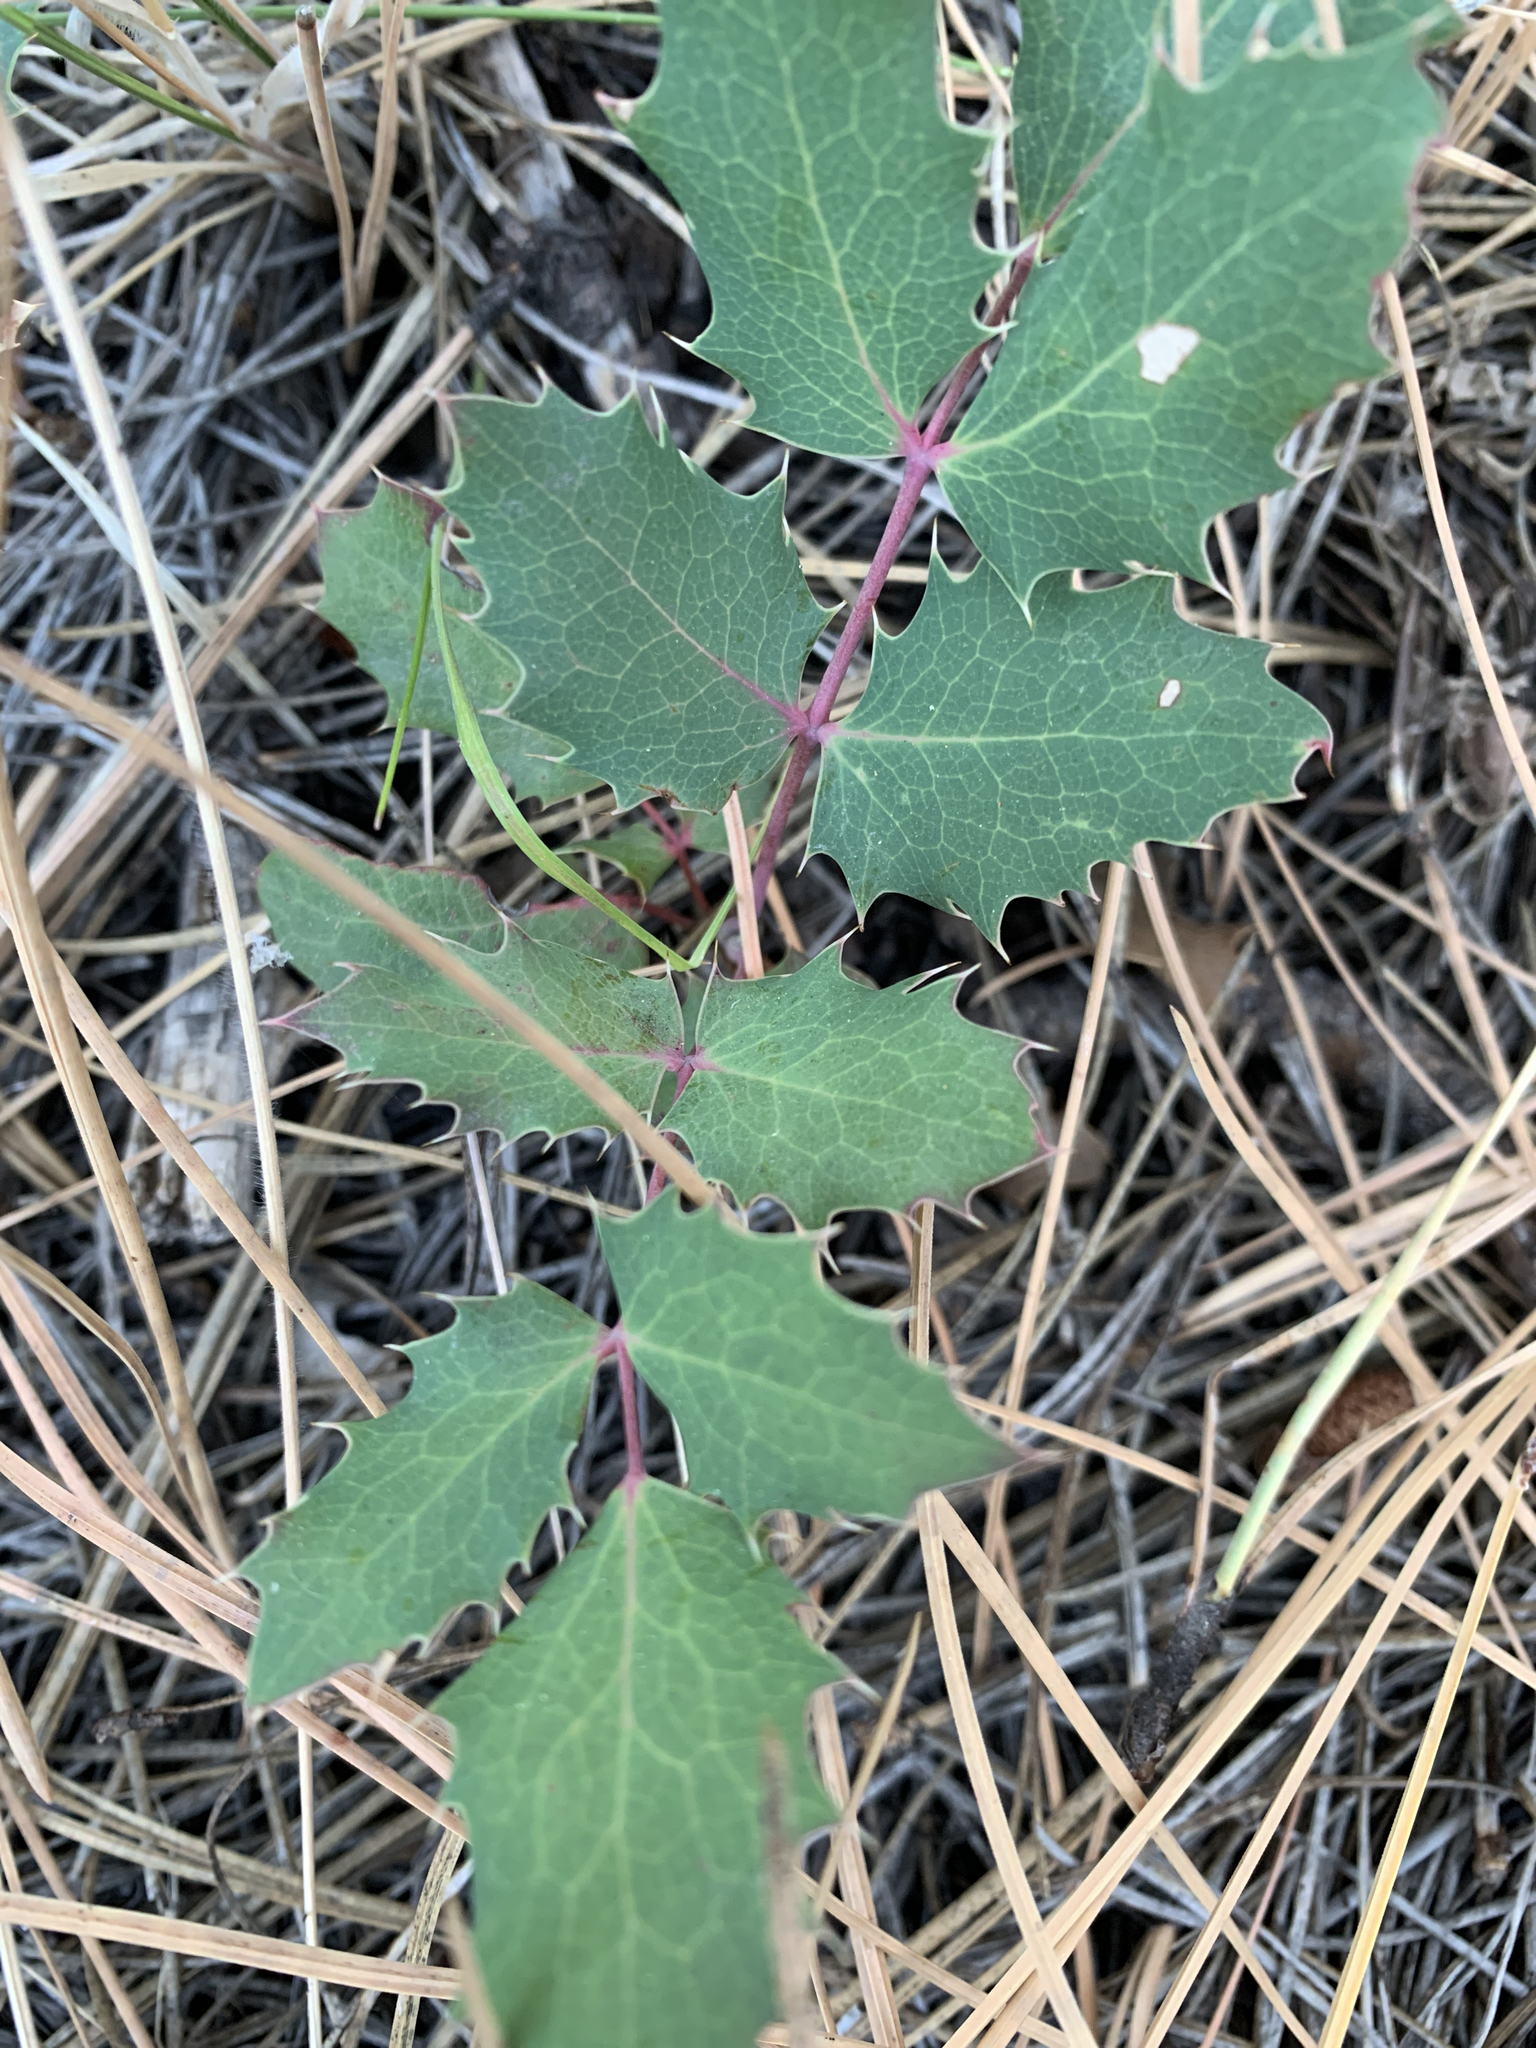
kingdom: Plantae
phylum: Tracheophyta
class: Magnoliopsida
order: Ranunculales
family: Berberidaceae
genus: Mahonia
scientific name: Mahonia repens
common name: Creeping oregon-grape
